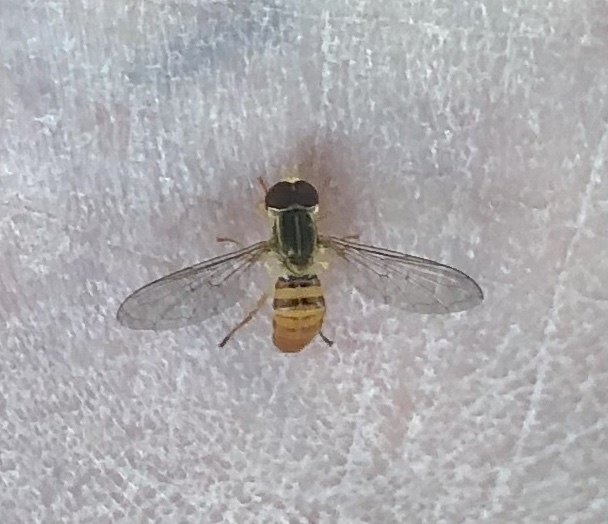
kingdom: Animalia
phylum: Arthropoda
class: Insecta
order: Diptera
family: Syrphidae
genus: Toxomerus
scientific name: Toxomerus politus
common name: Maize calligrapher
